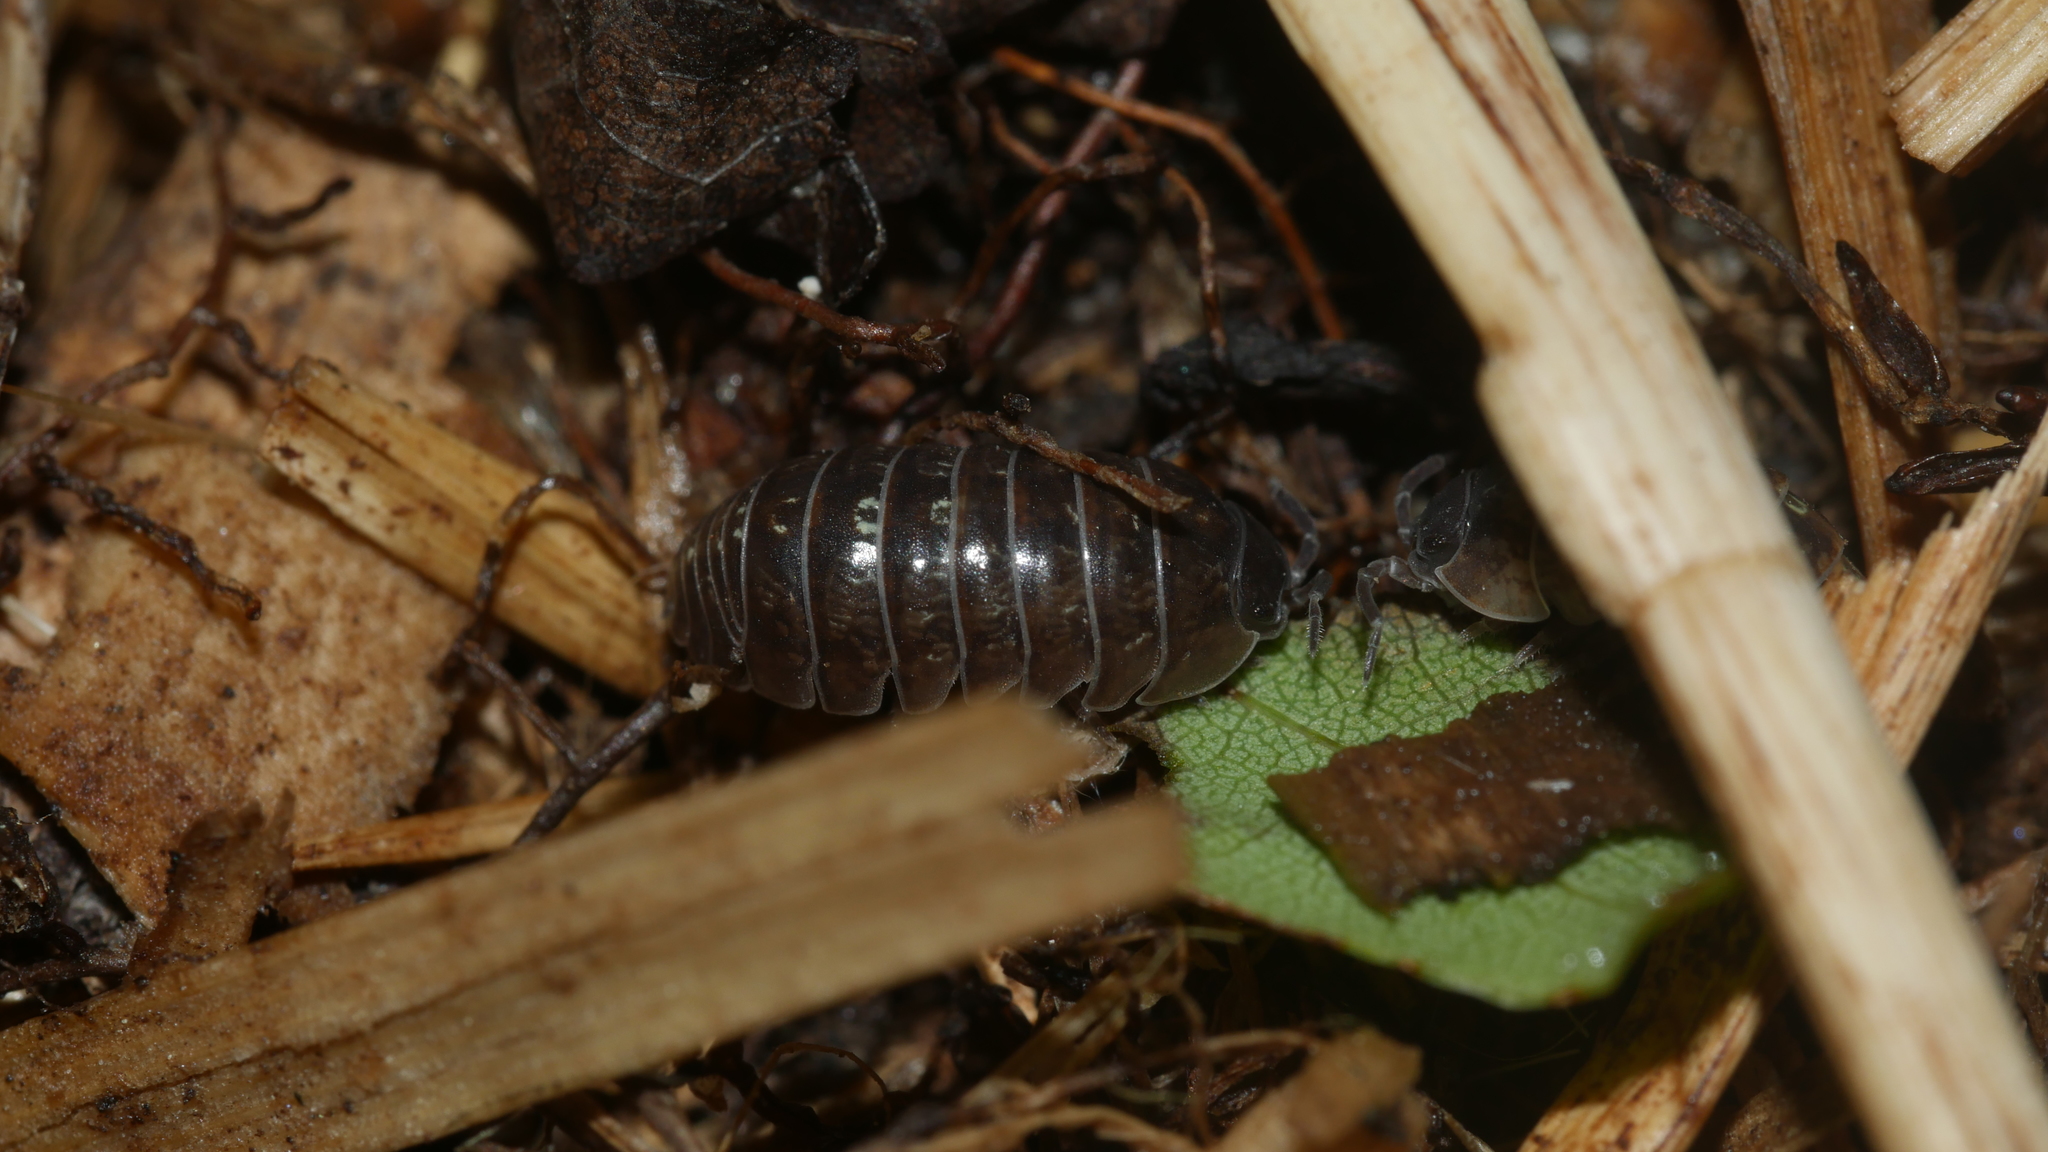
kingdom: Animalia
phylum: Arthropoda
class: Malacostraca
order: Isopoda
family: Armadillidiidae
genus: Armadillidium
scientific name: Armadillidium vulgare
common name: Common pill woodlouse
